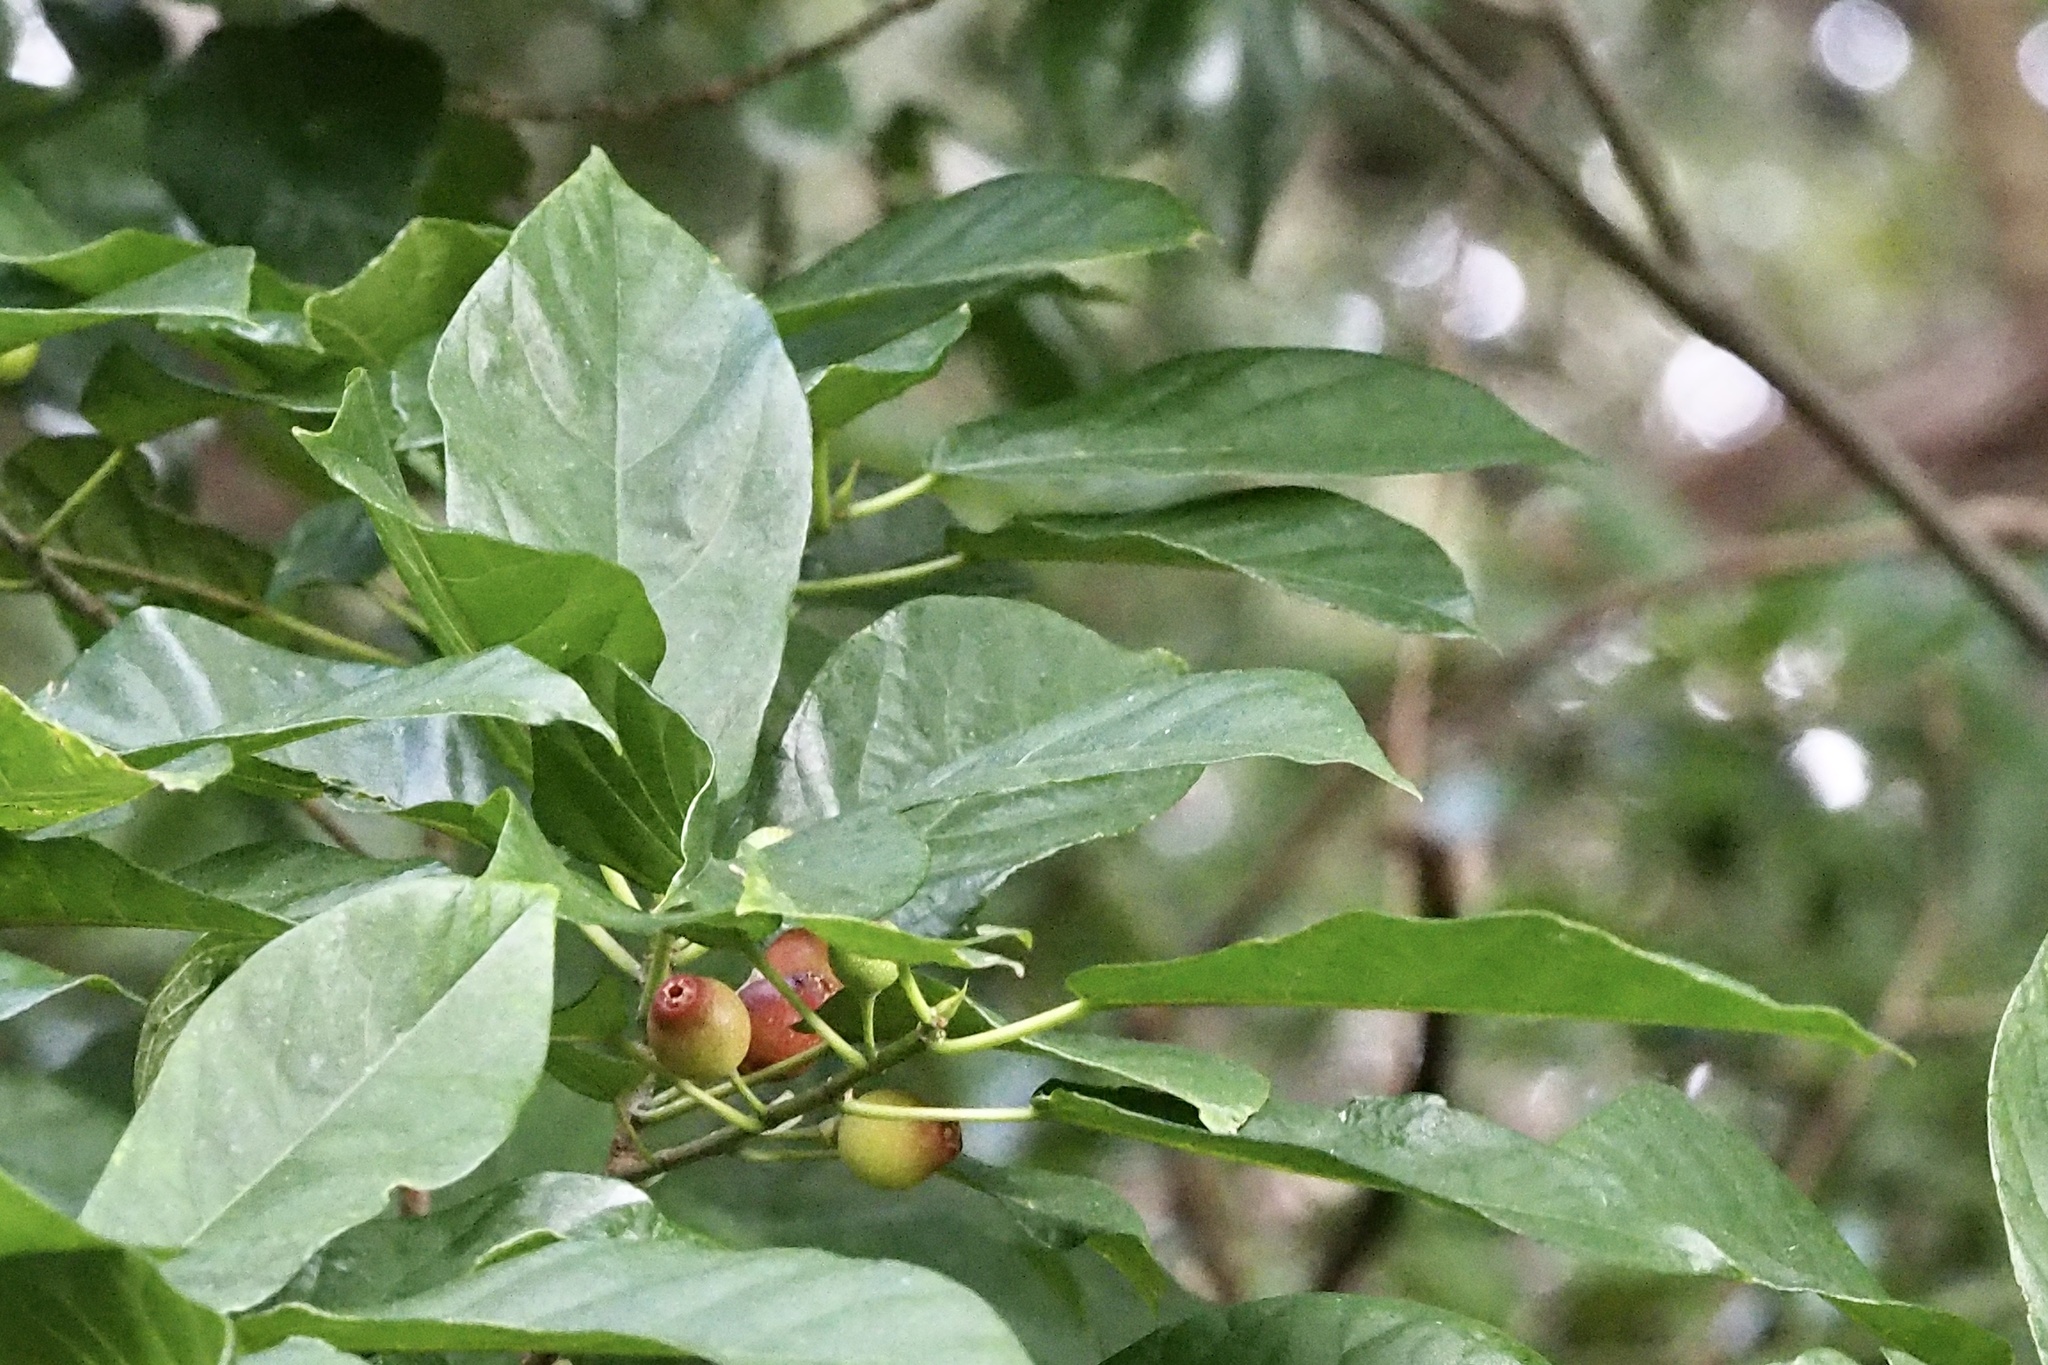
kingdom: Plantae
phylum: Tracheophyta
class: Magnoliopsida
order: Rosales
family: Moraceae
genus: Ficus
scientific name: Ficus erecta
